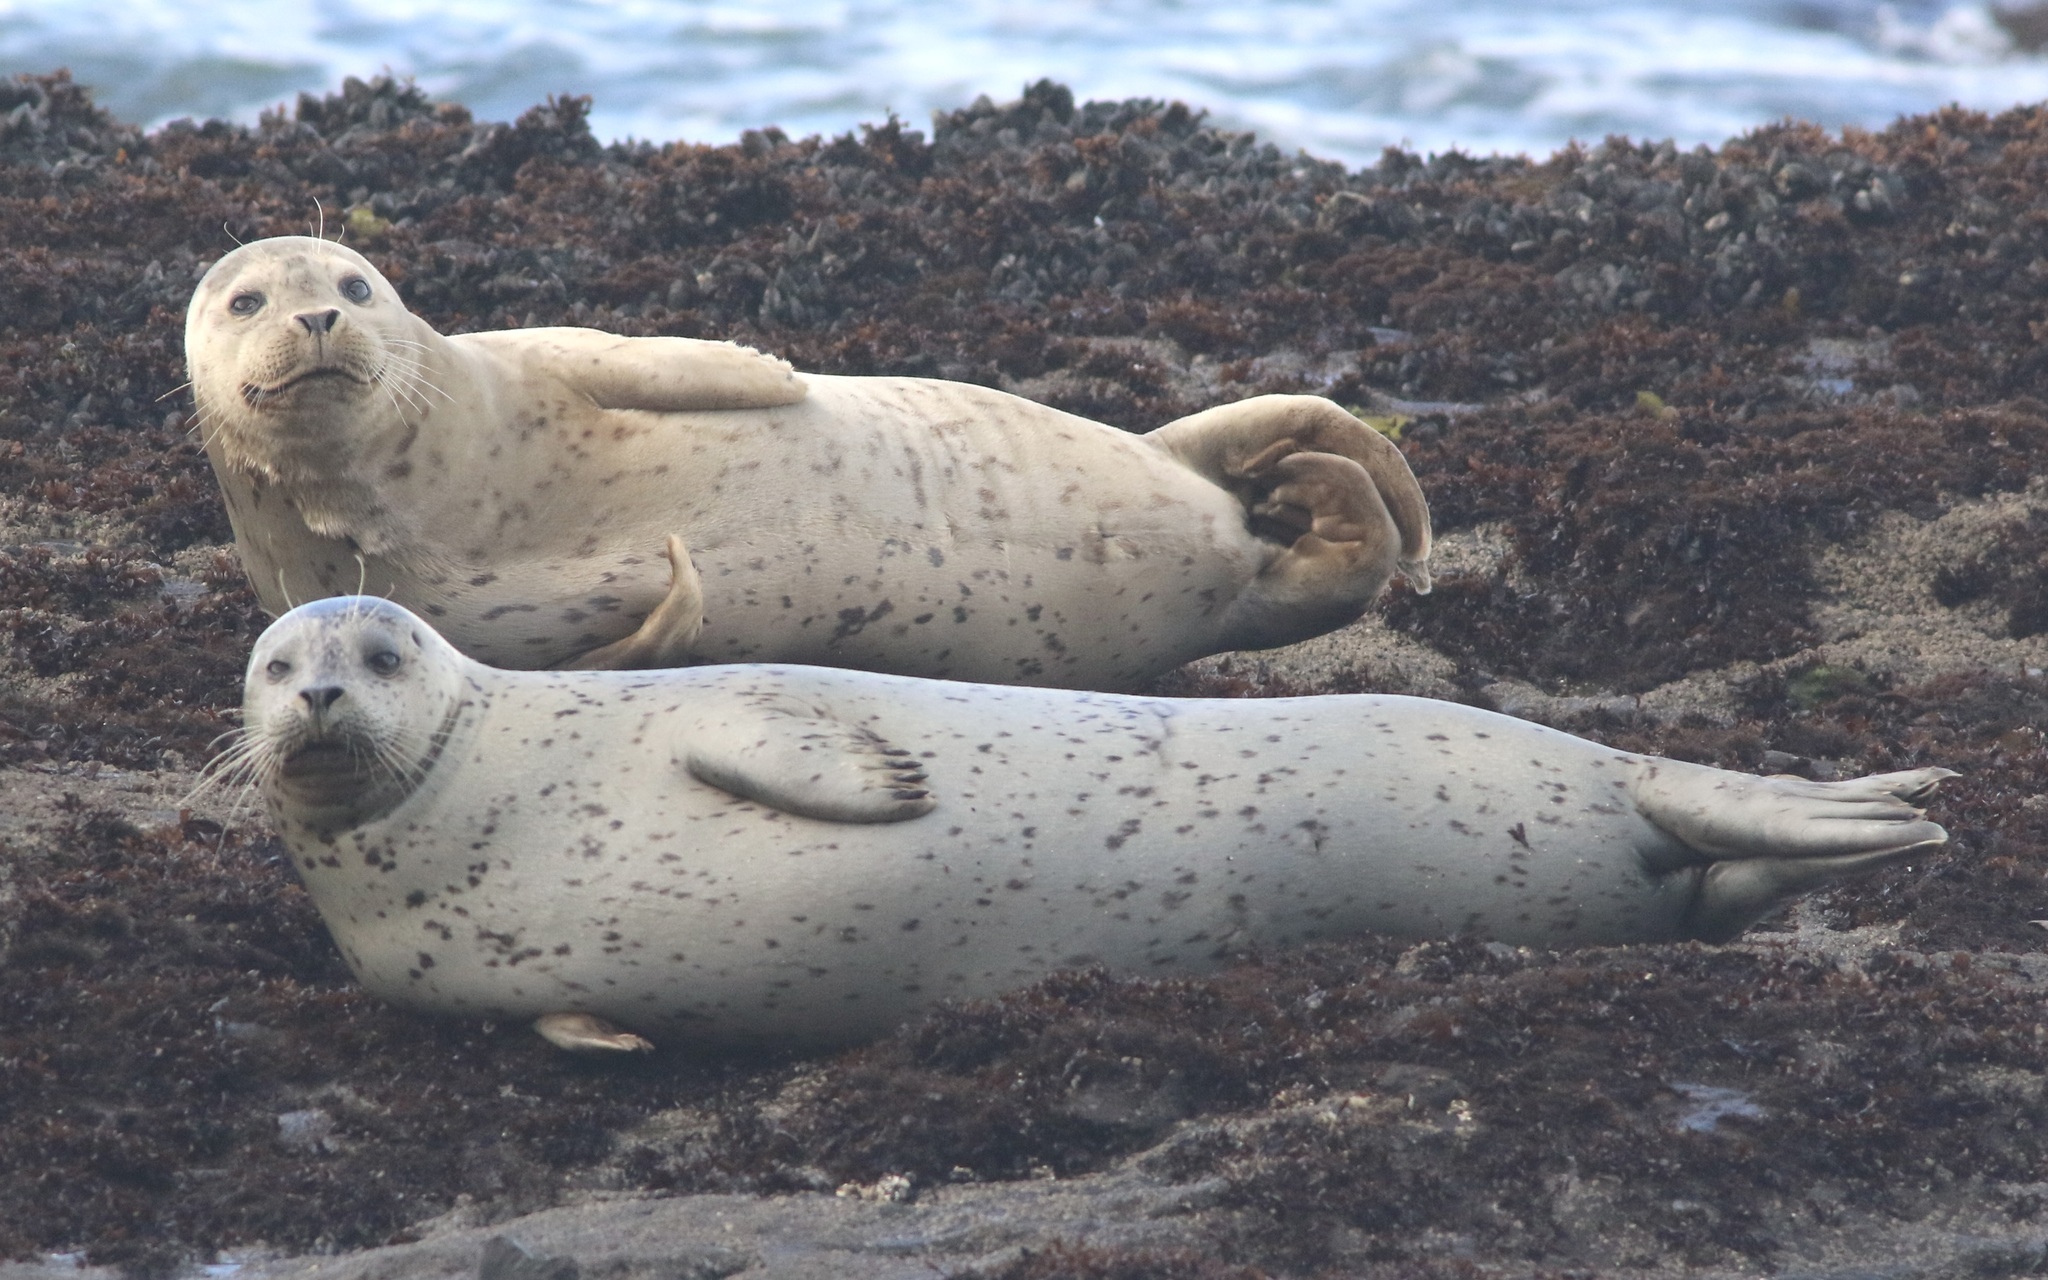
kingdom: Animalia
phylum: Chordata
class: Mammalia
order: Carnivora
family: Phocidae
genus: Phoca
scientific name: Phoca vitulina
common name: Harbor seal
